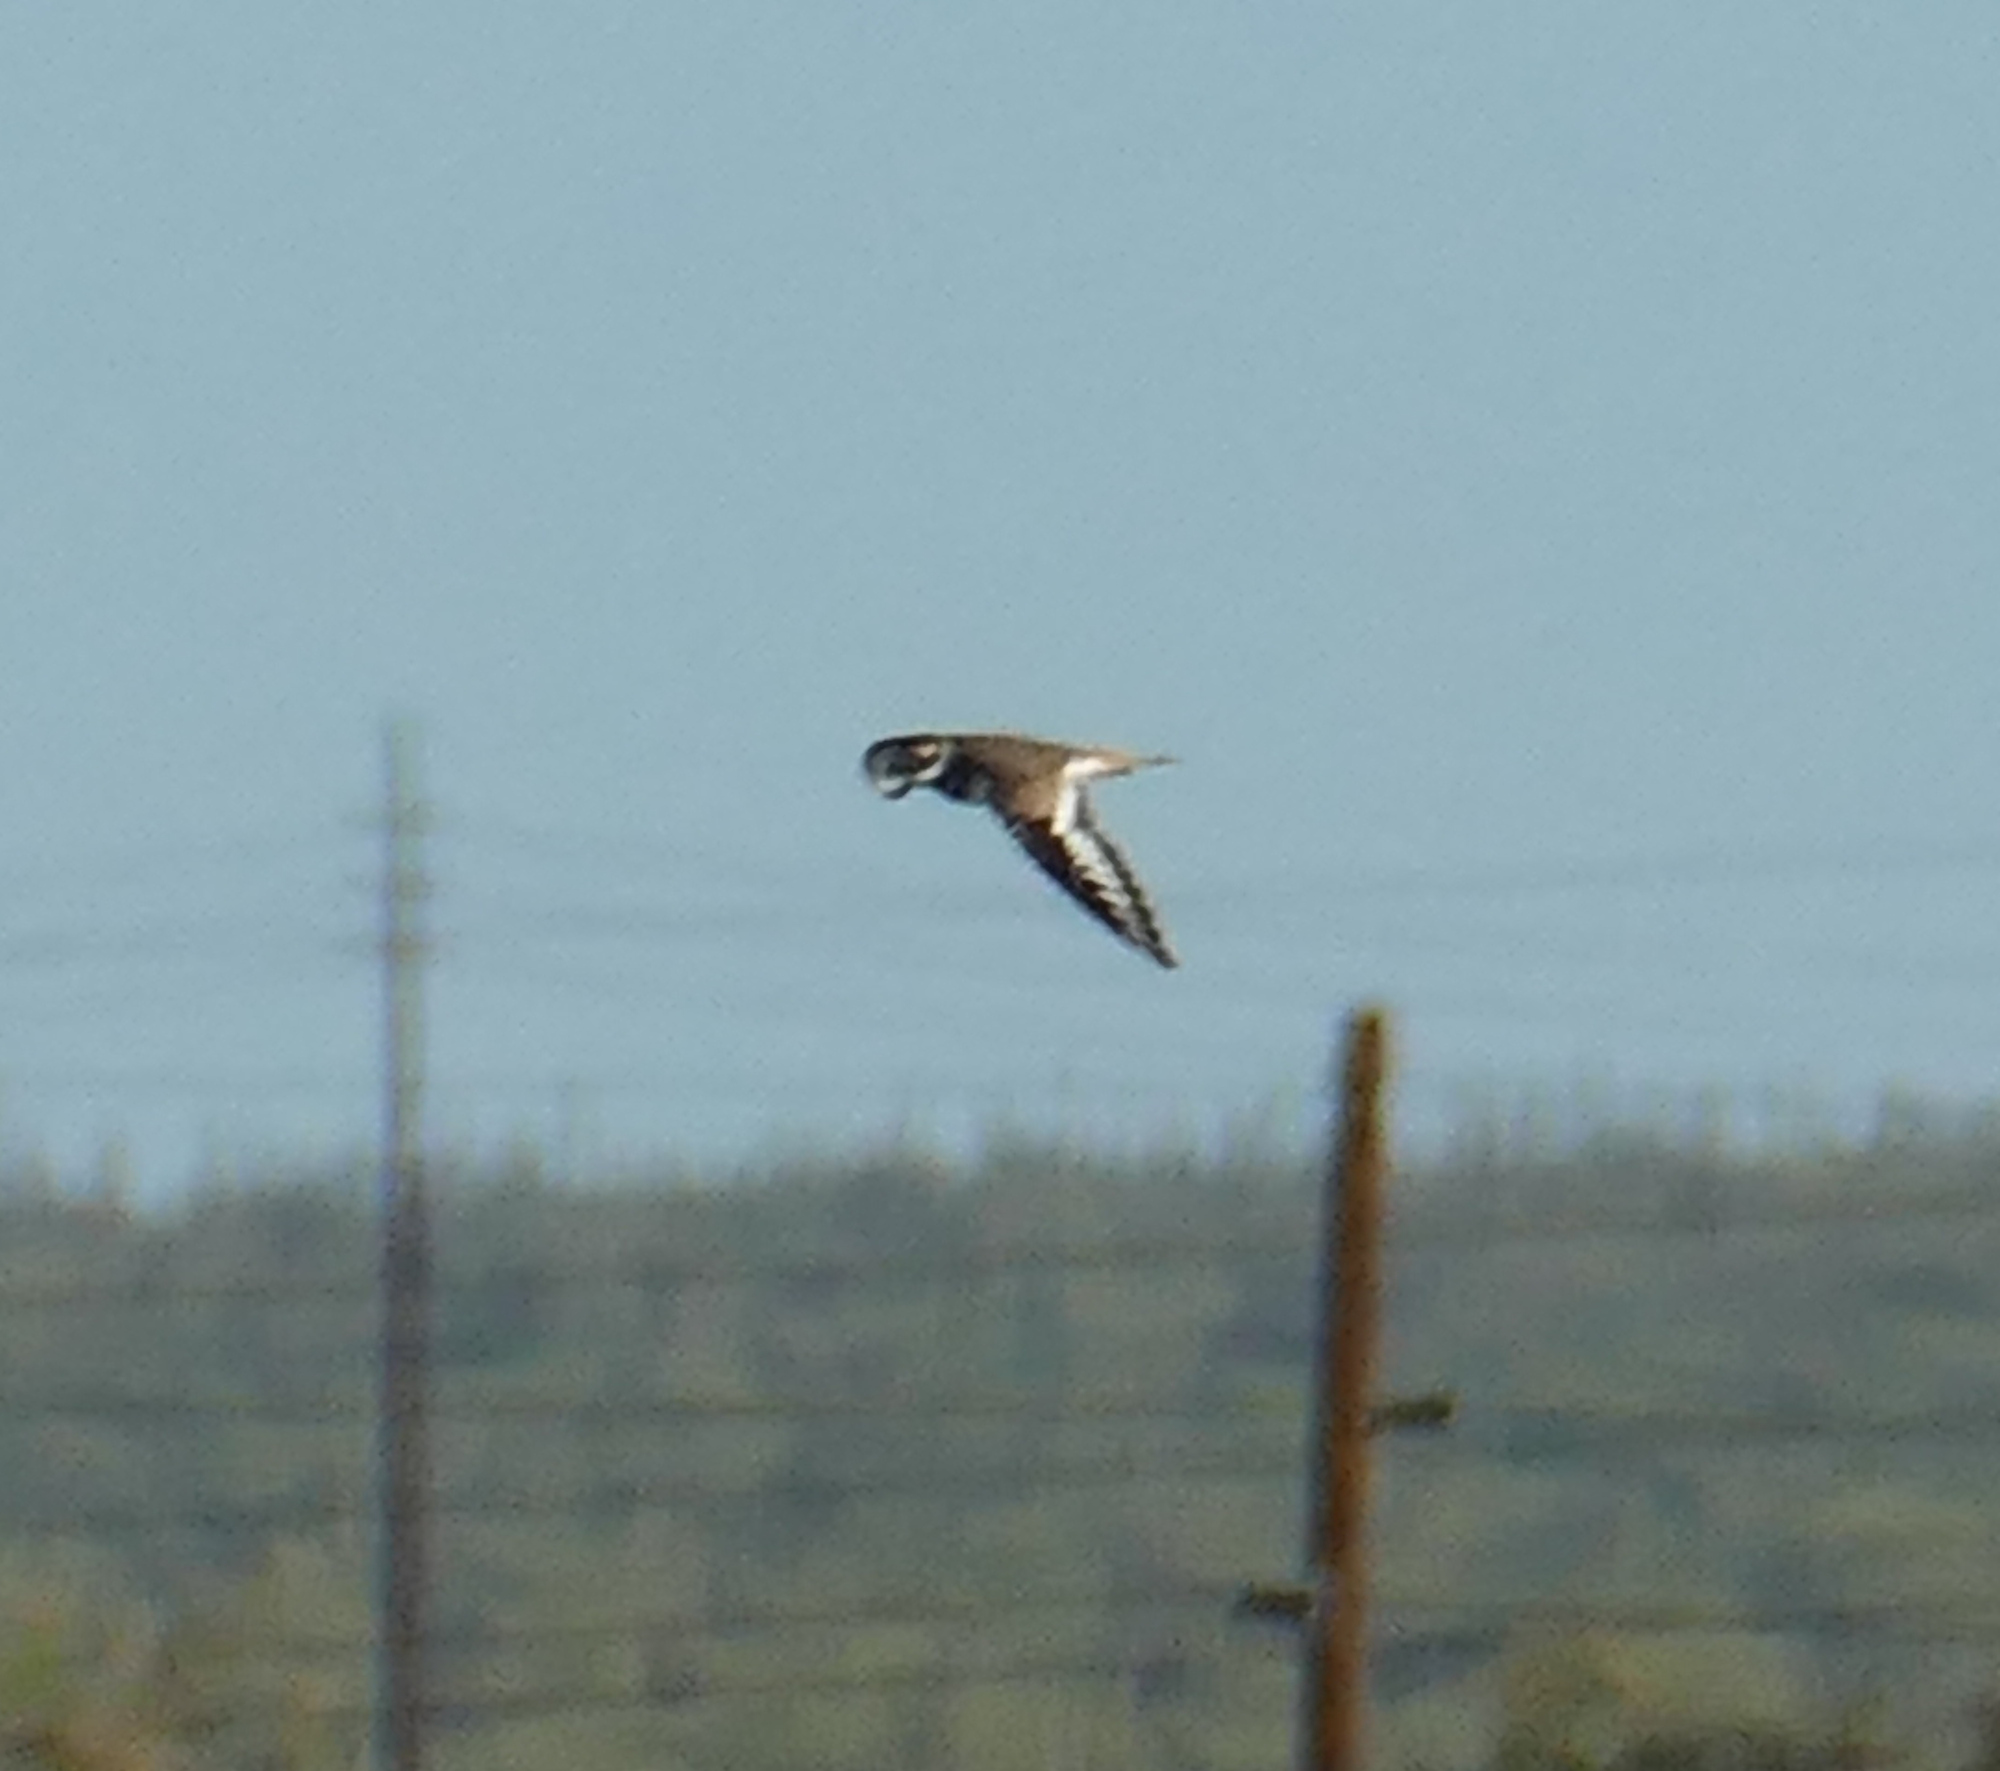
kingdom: Animalia
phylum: Chordata
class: Aves
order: Charadriiformes
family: Charadriidae
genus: Charadrius
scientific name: Charadrius vociferus
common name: Killdeer
